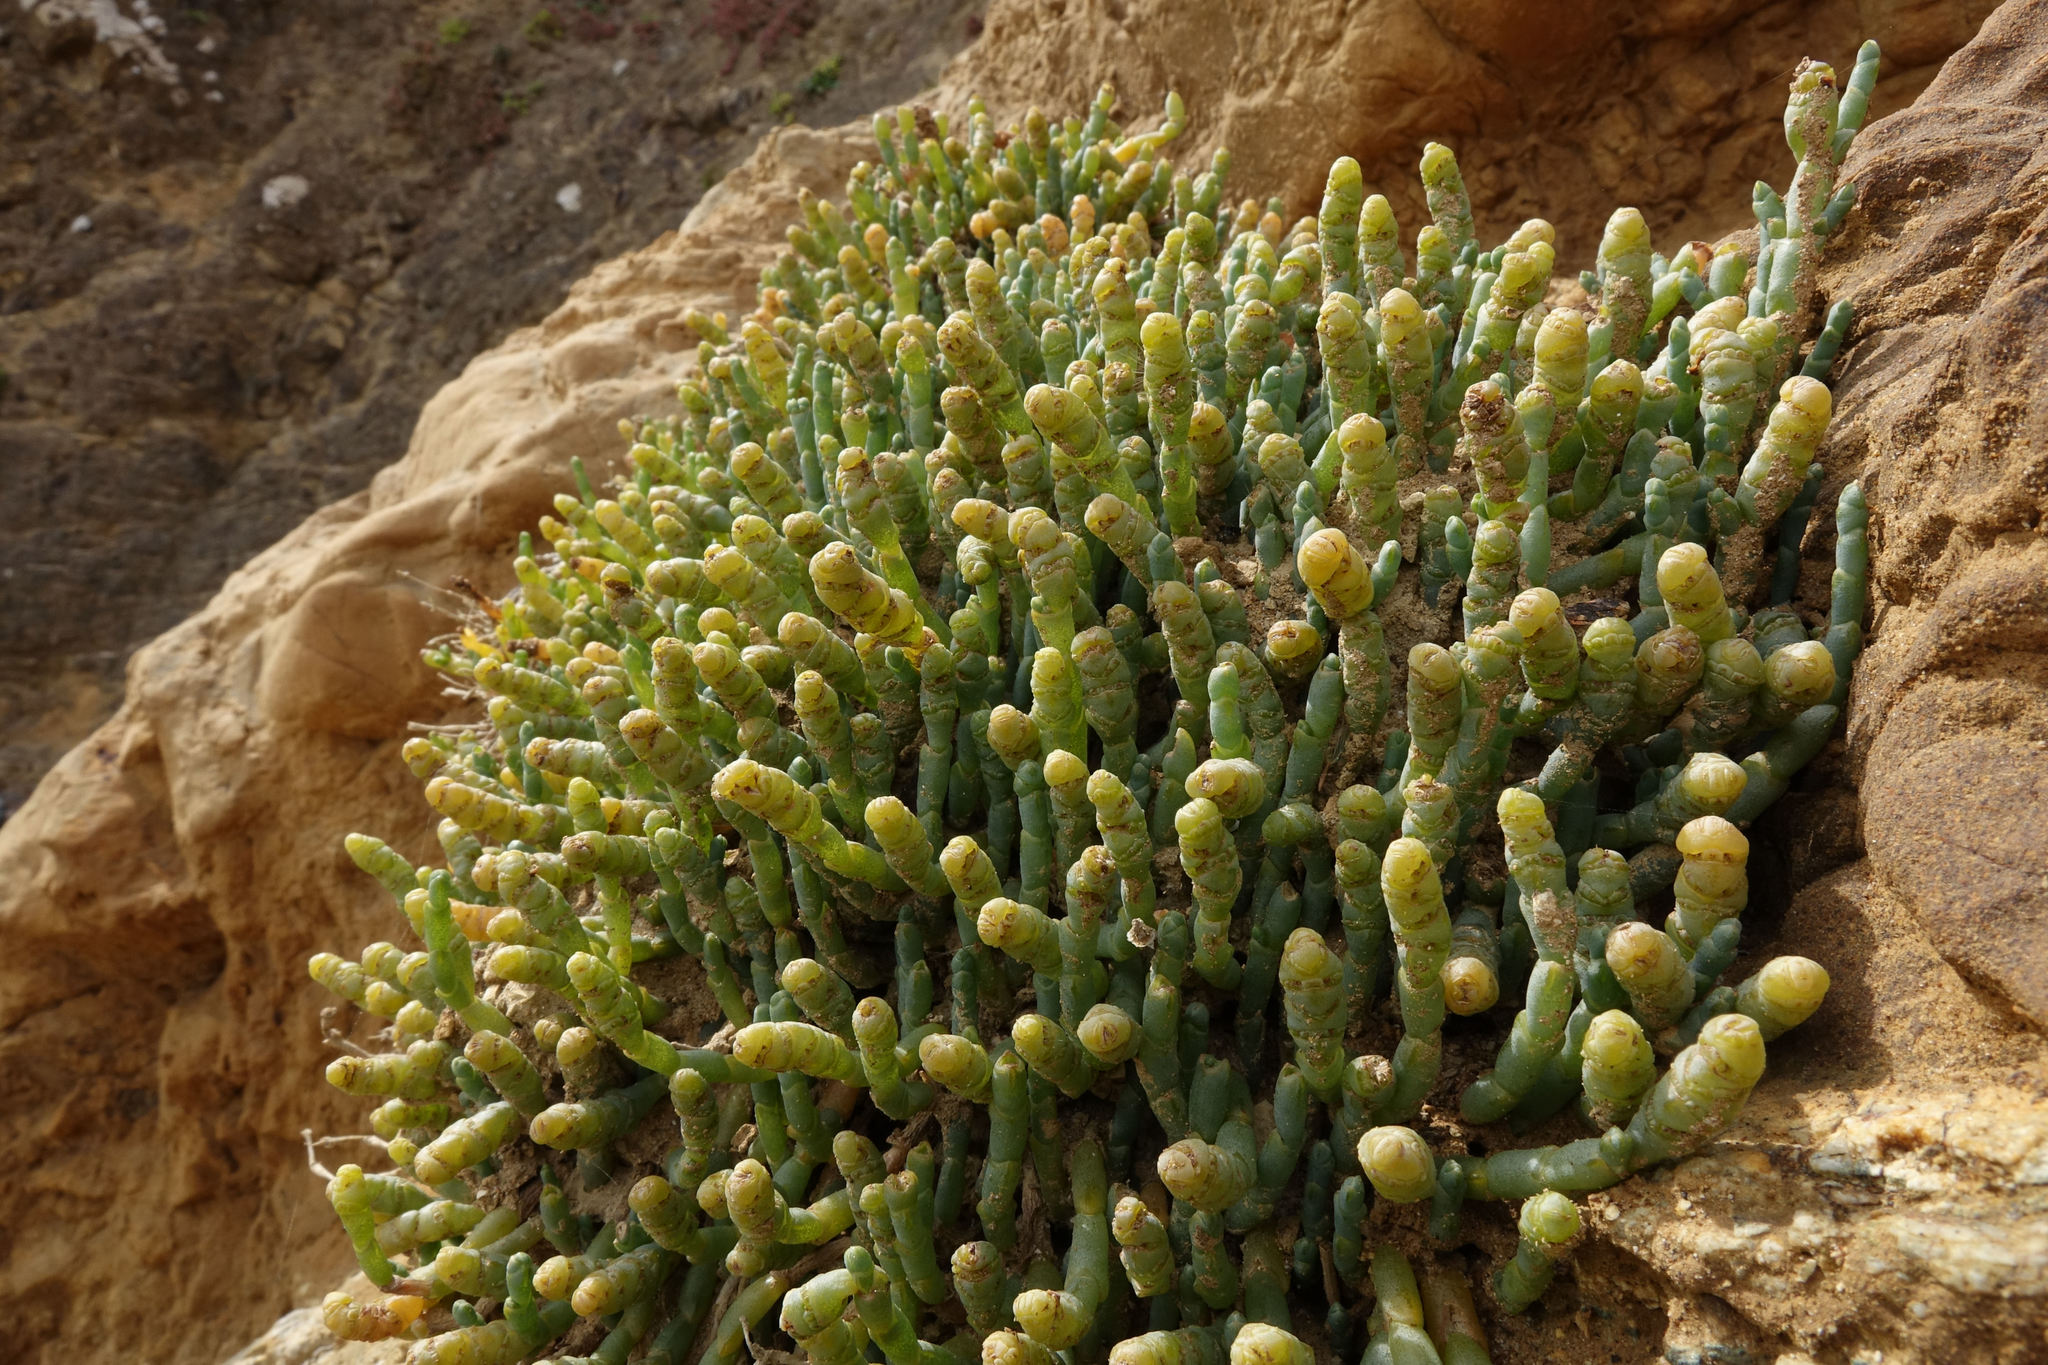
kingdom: Plantae
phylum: Tracheophyta
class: Magnoliopsida
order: Caryophyllales
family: Amaranthaceae
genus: Salicornia
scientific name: Salicornia quinqueflora
